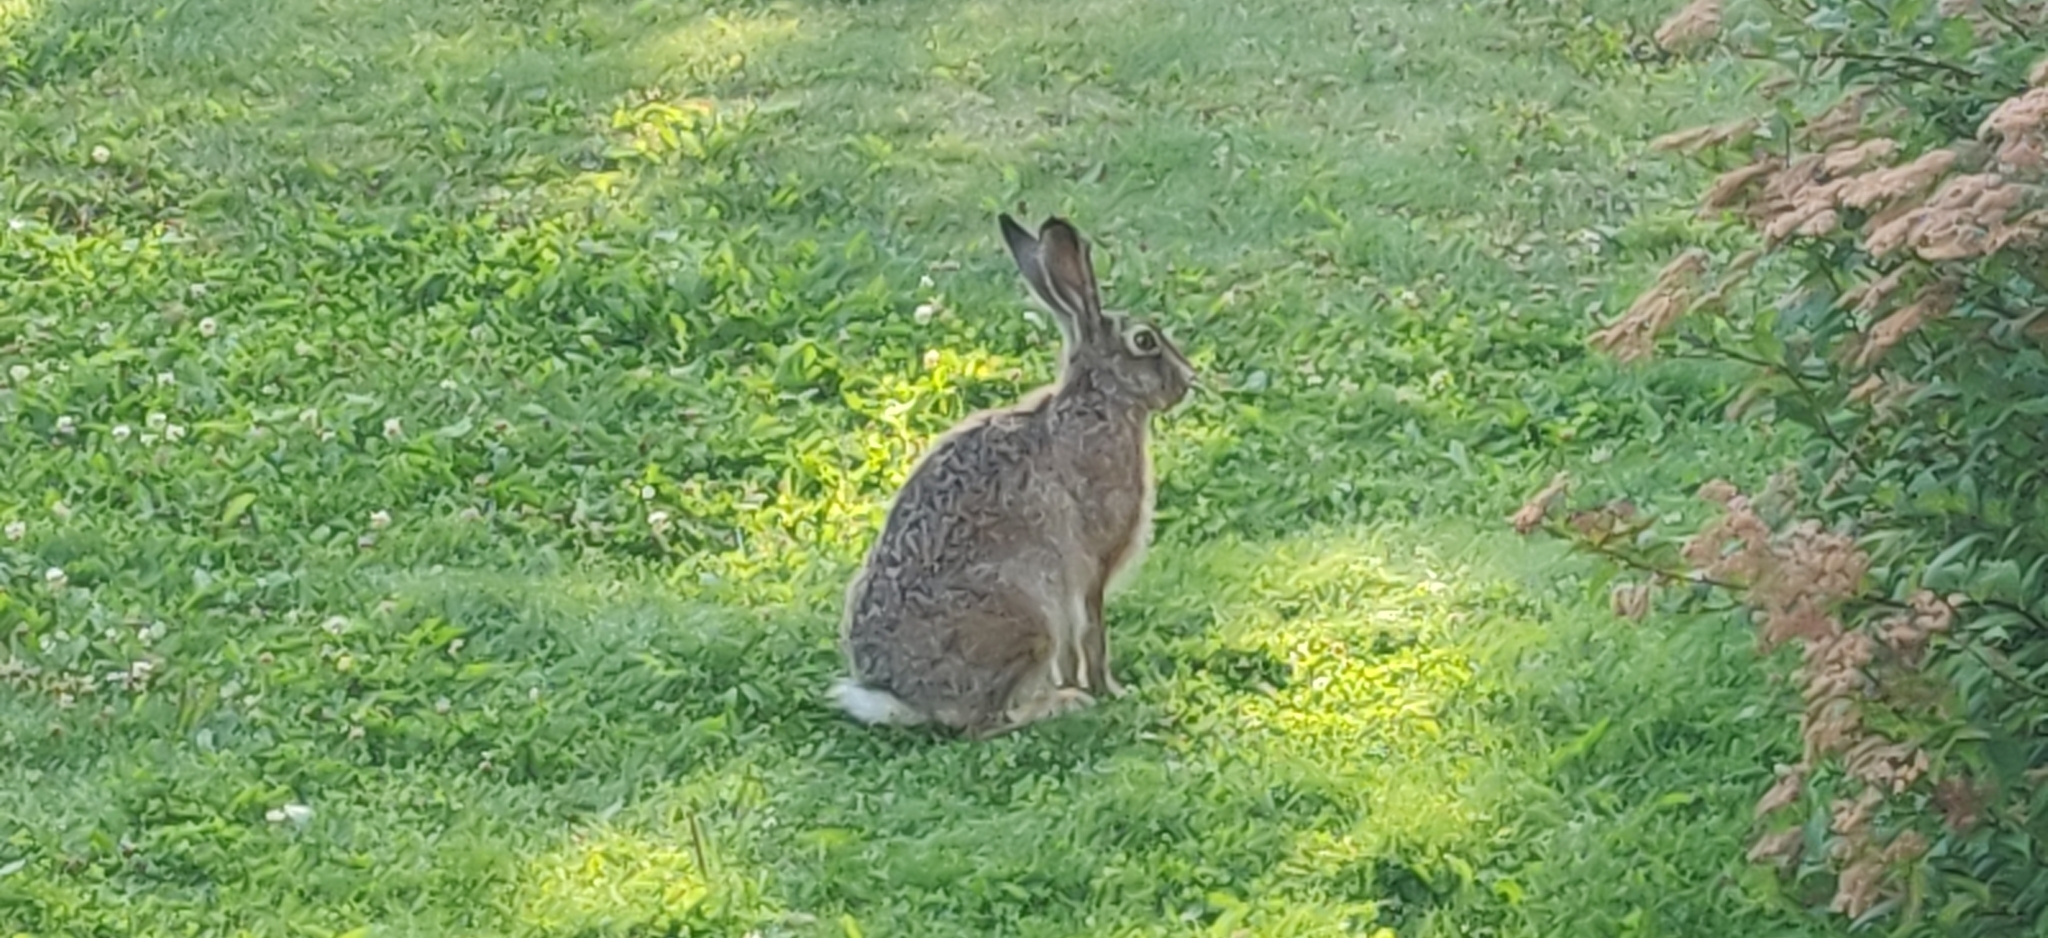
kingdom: Animalia
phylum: Chordata
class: Mammalia
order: Lagomorpha
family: Leporidae
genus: Lepus
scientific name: Lepus europaeus
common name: European hare
